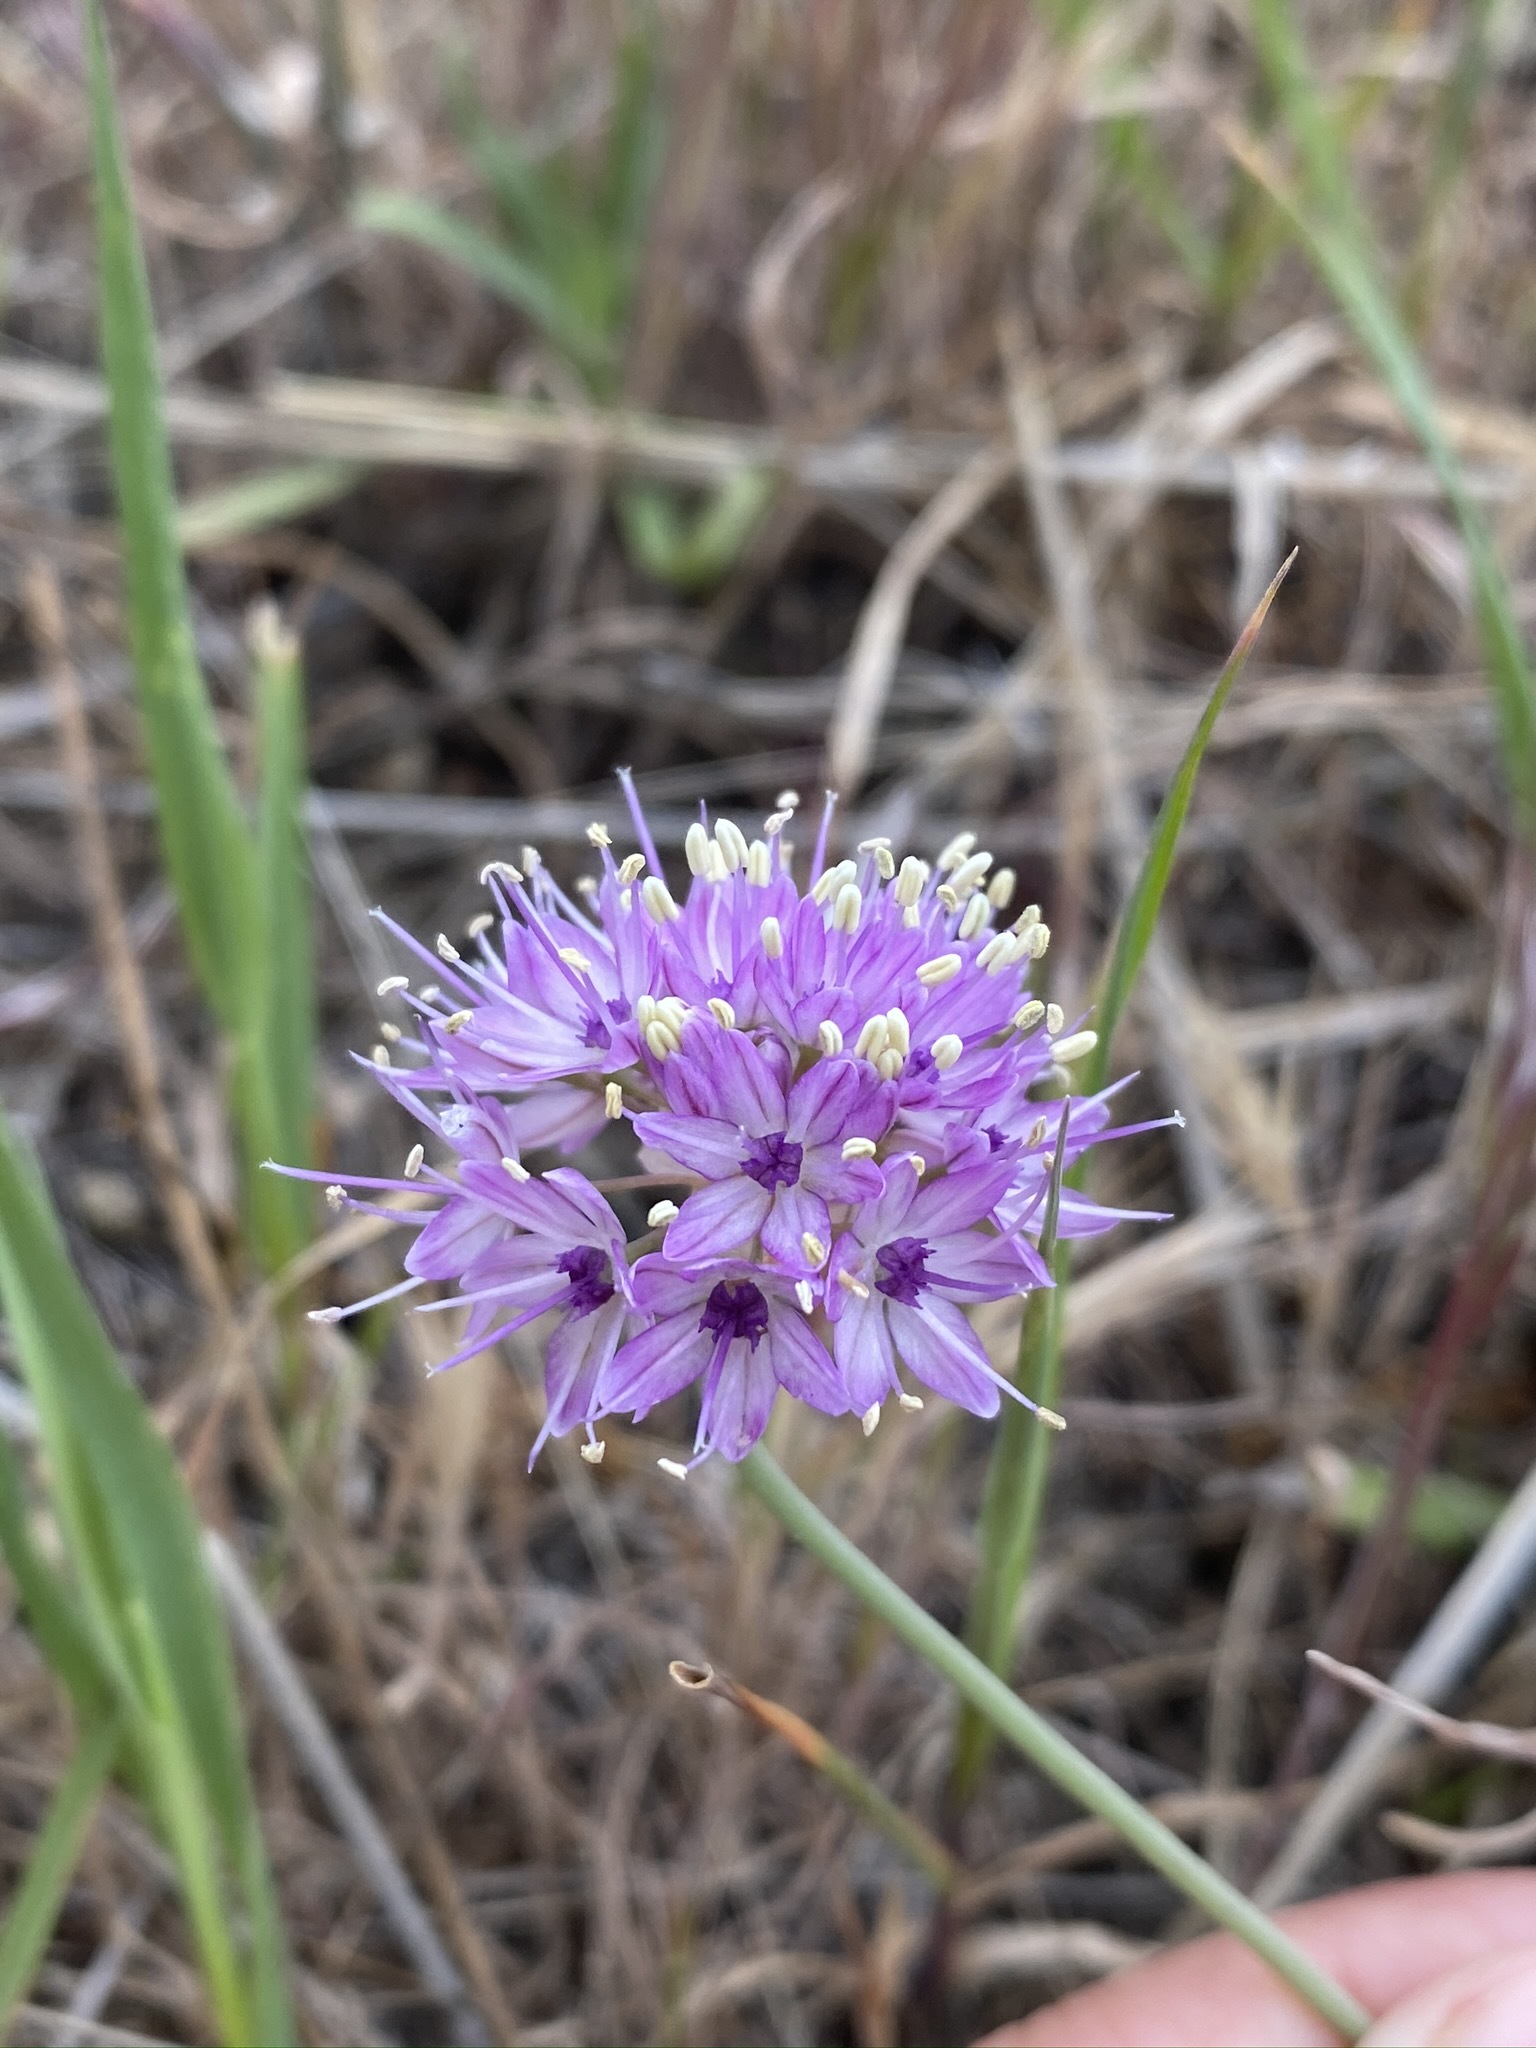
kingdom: Plantae
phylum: Tracheophyta
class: Liliopsida
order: Asparagales
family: Amaryllidaceae
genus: Allium
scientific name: Allium howellii
